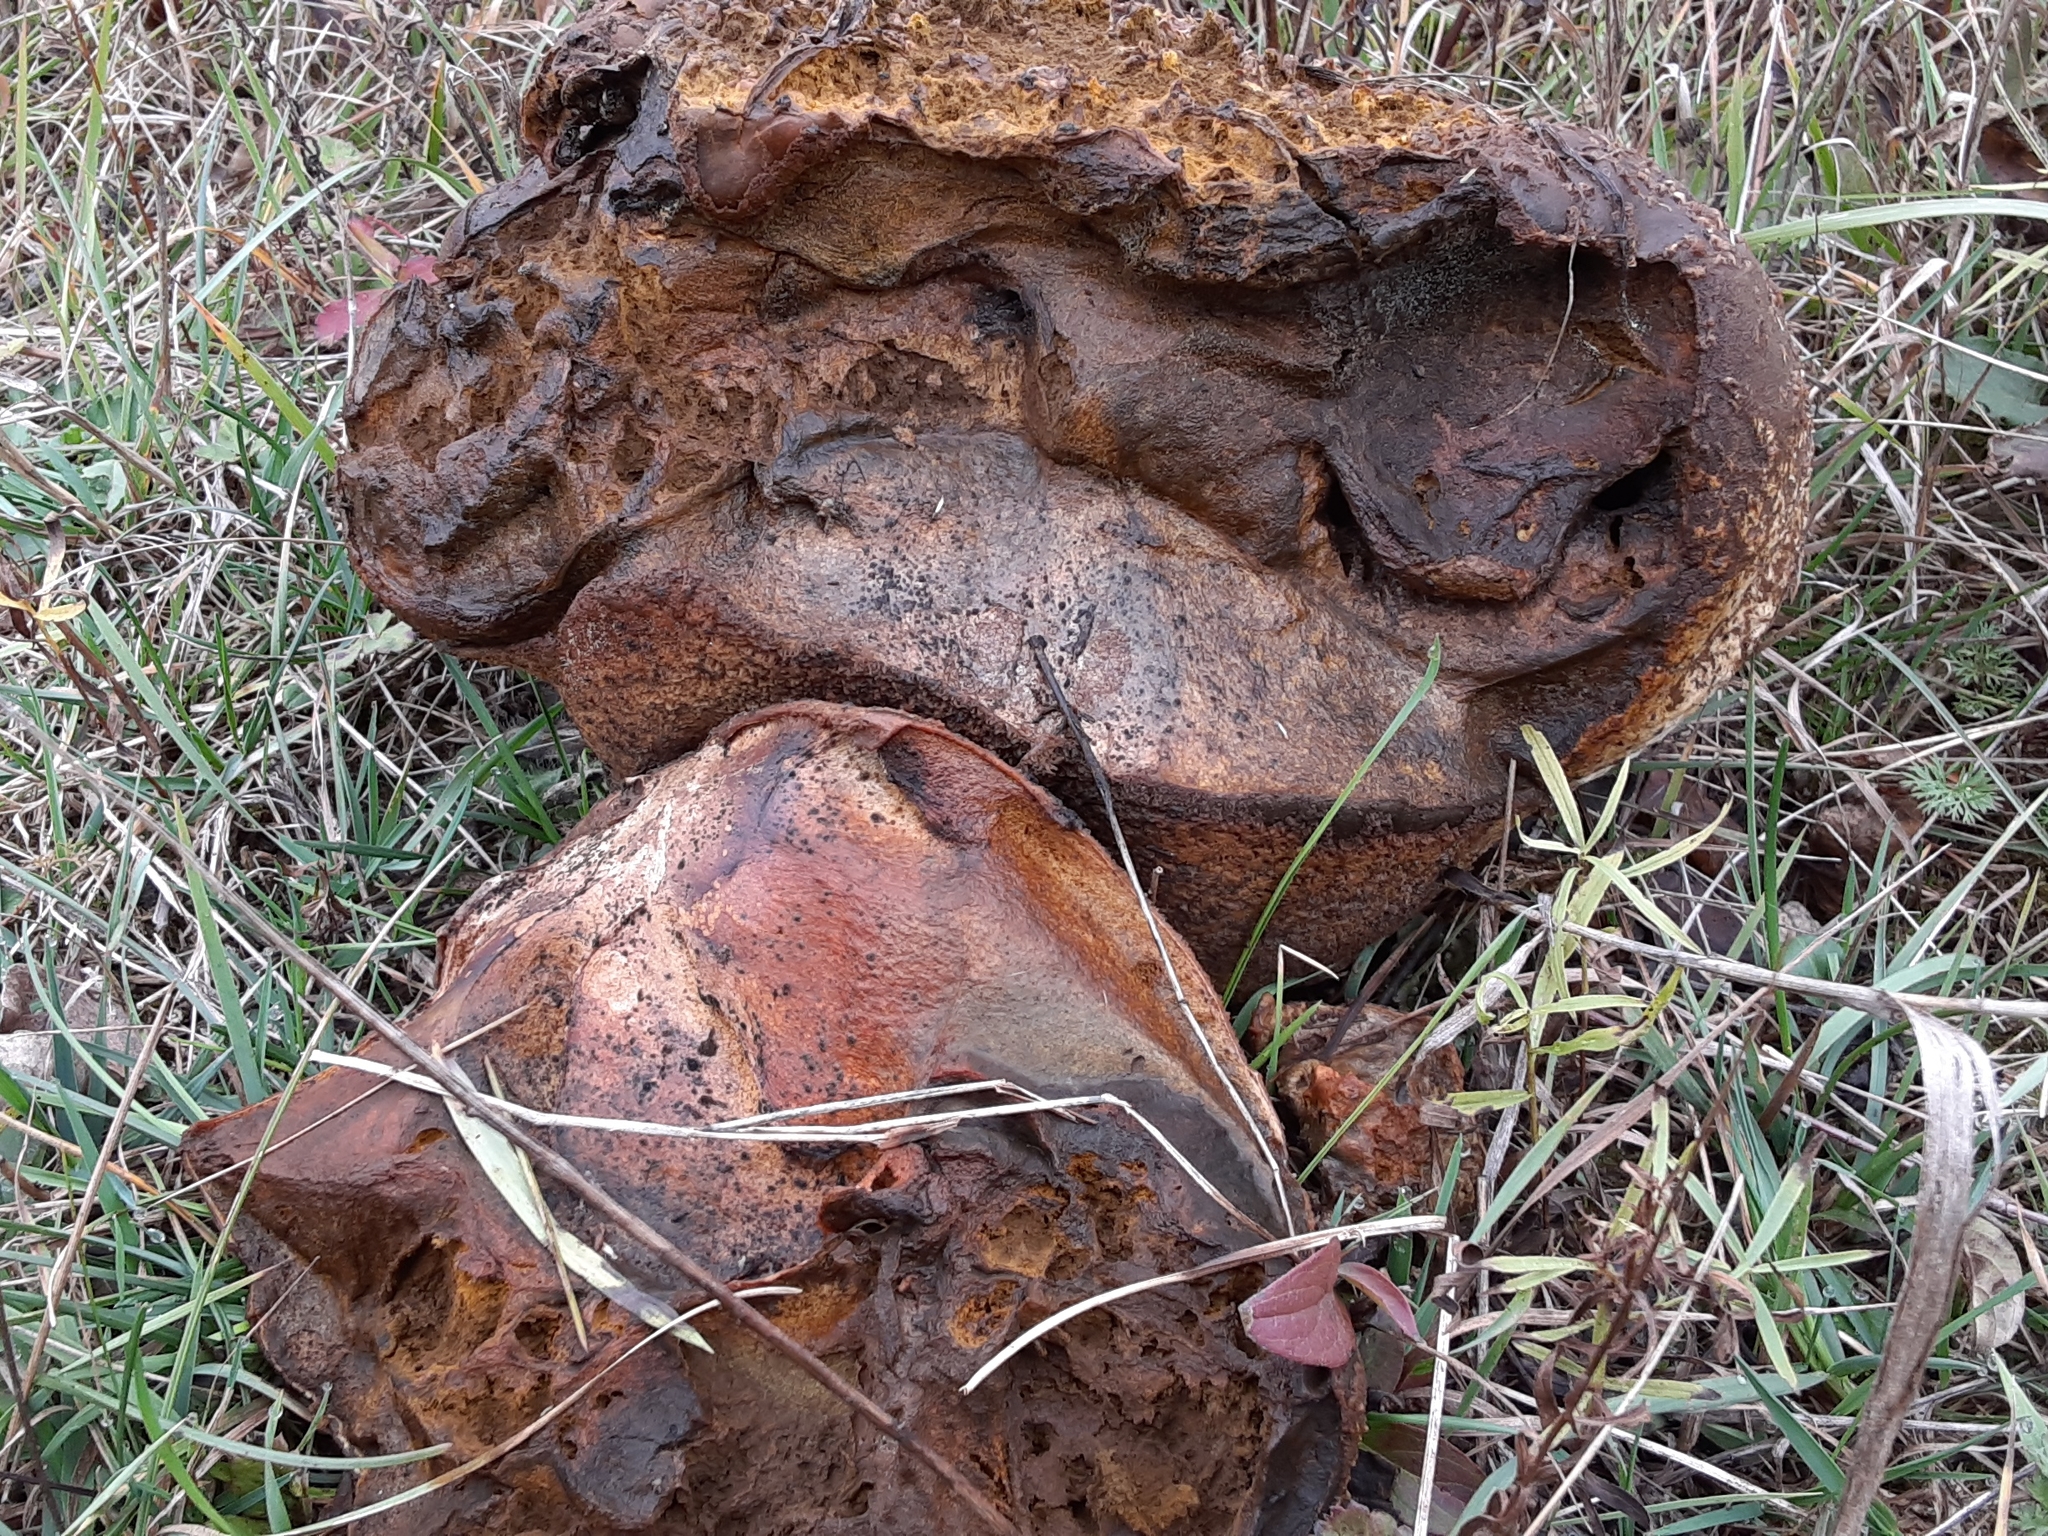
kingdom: Fungi
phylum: Basidiomycota
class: Agaricomycetes
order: Agaricales
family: Lycoperdaceae
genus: Calvatia
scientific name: Calvatia cyathiformis
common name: Purple-spored puffball
